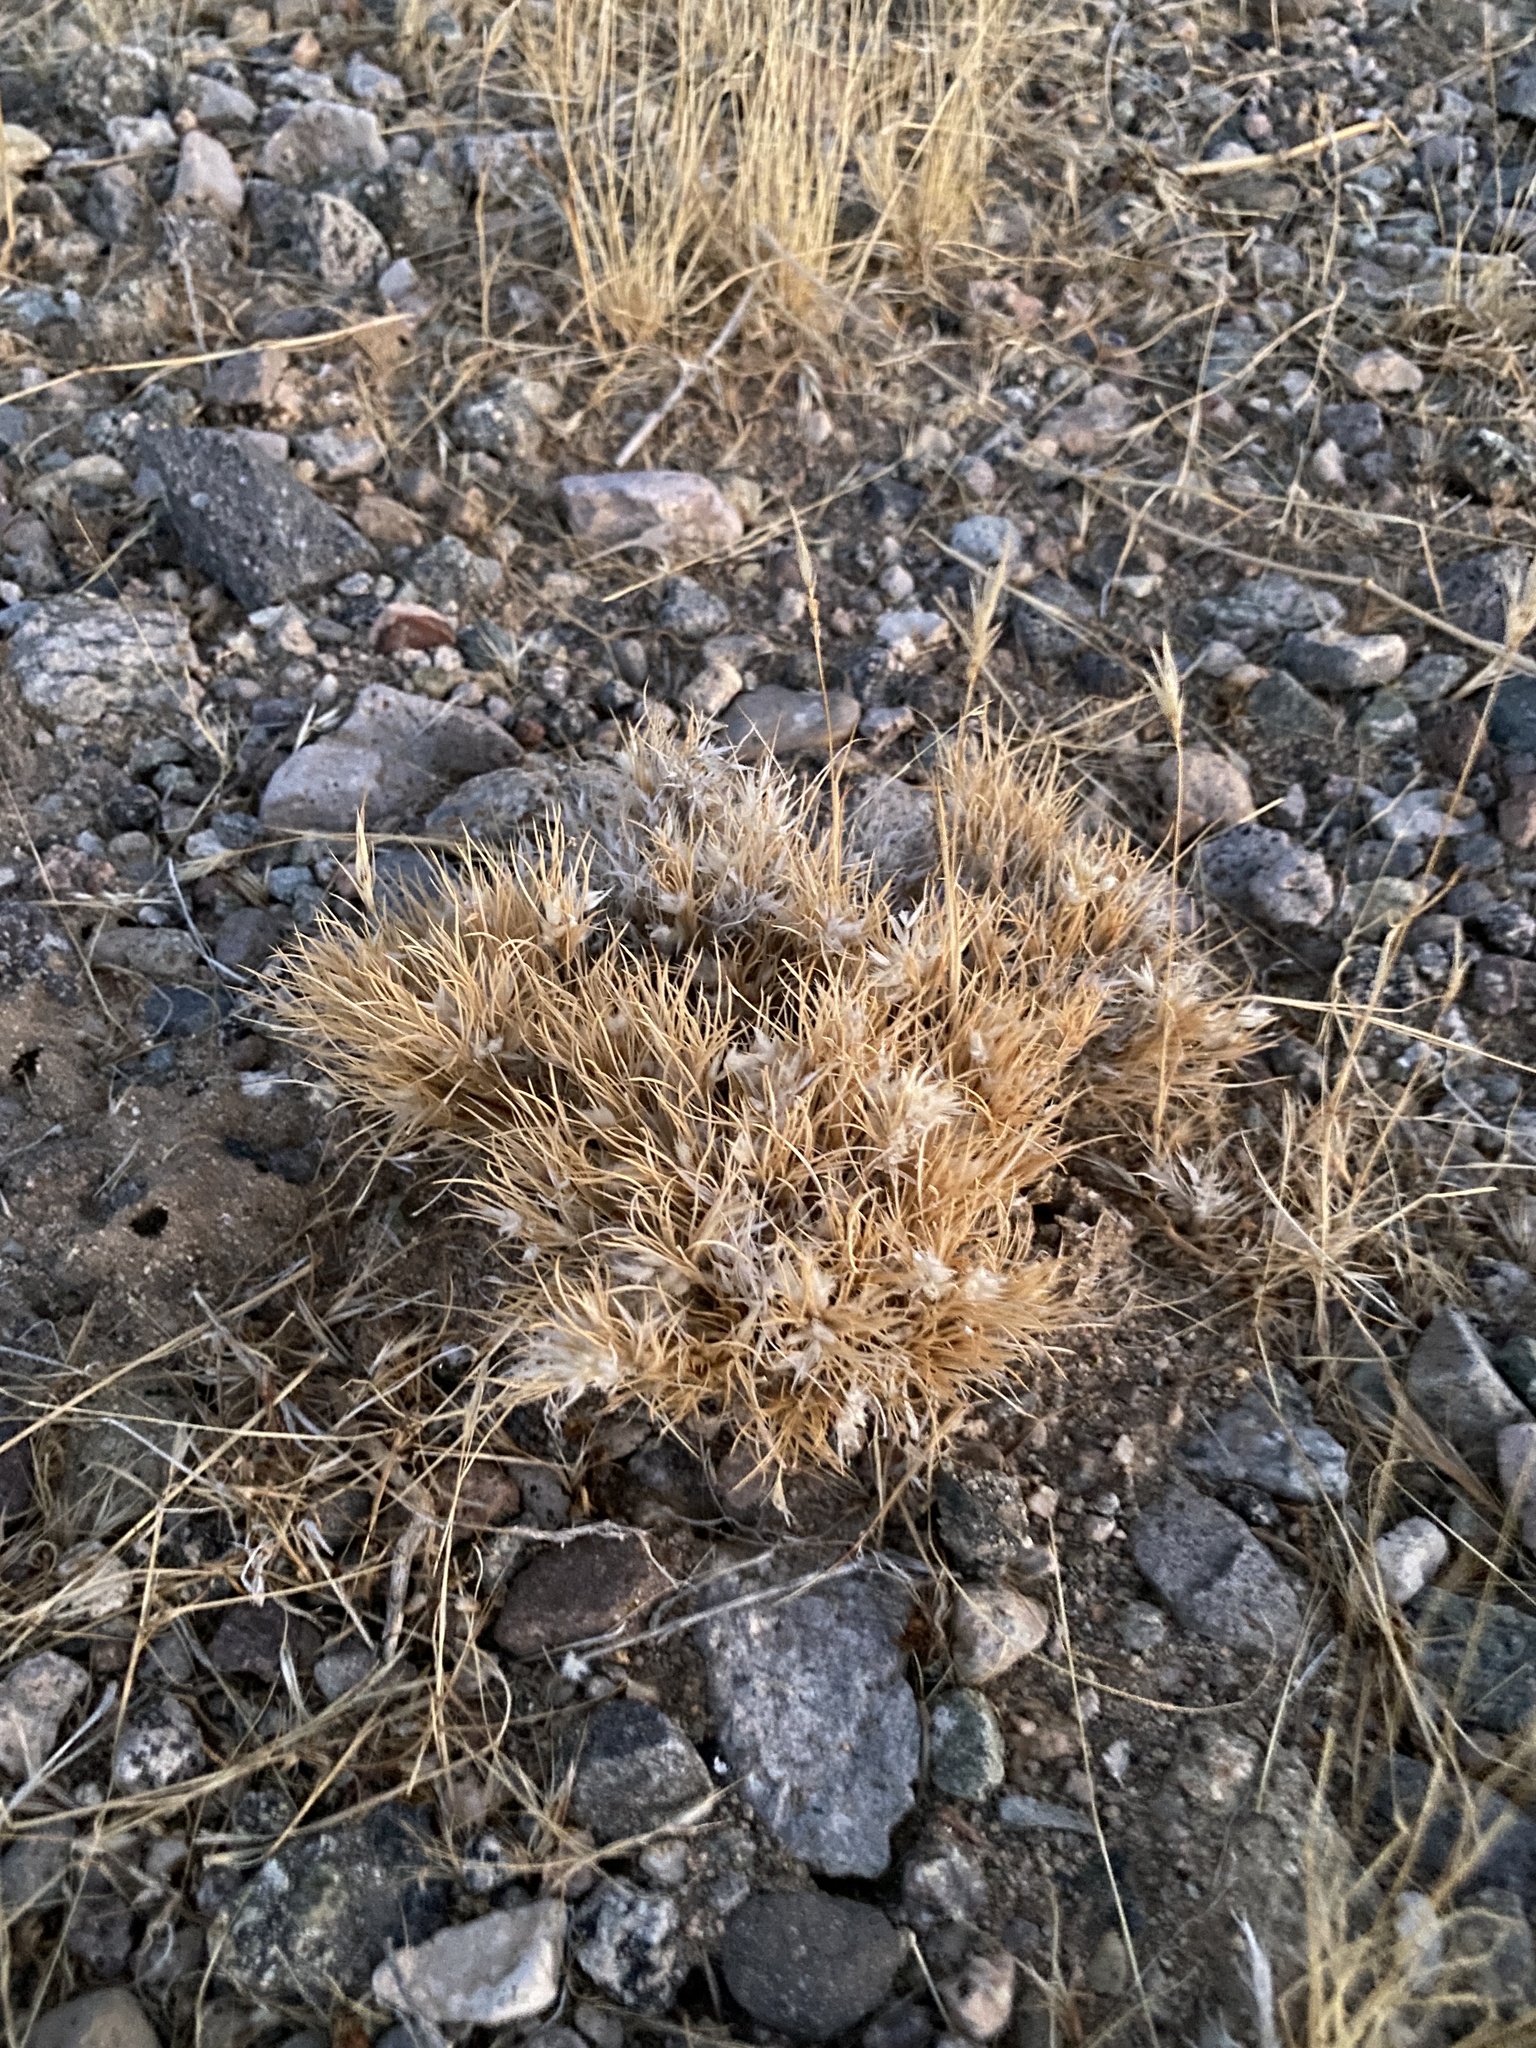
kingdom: Plantae
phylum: Tracheophyta
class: Liliopsida
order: Poales
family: Poaceae
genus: Dasyochloa
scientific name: Dasyochloa pulchella
